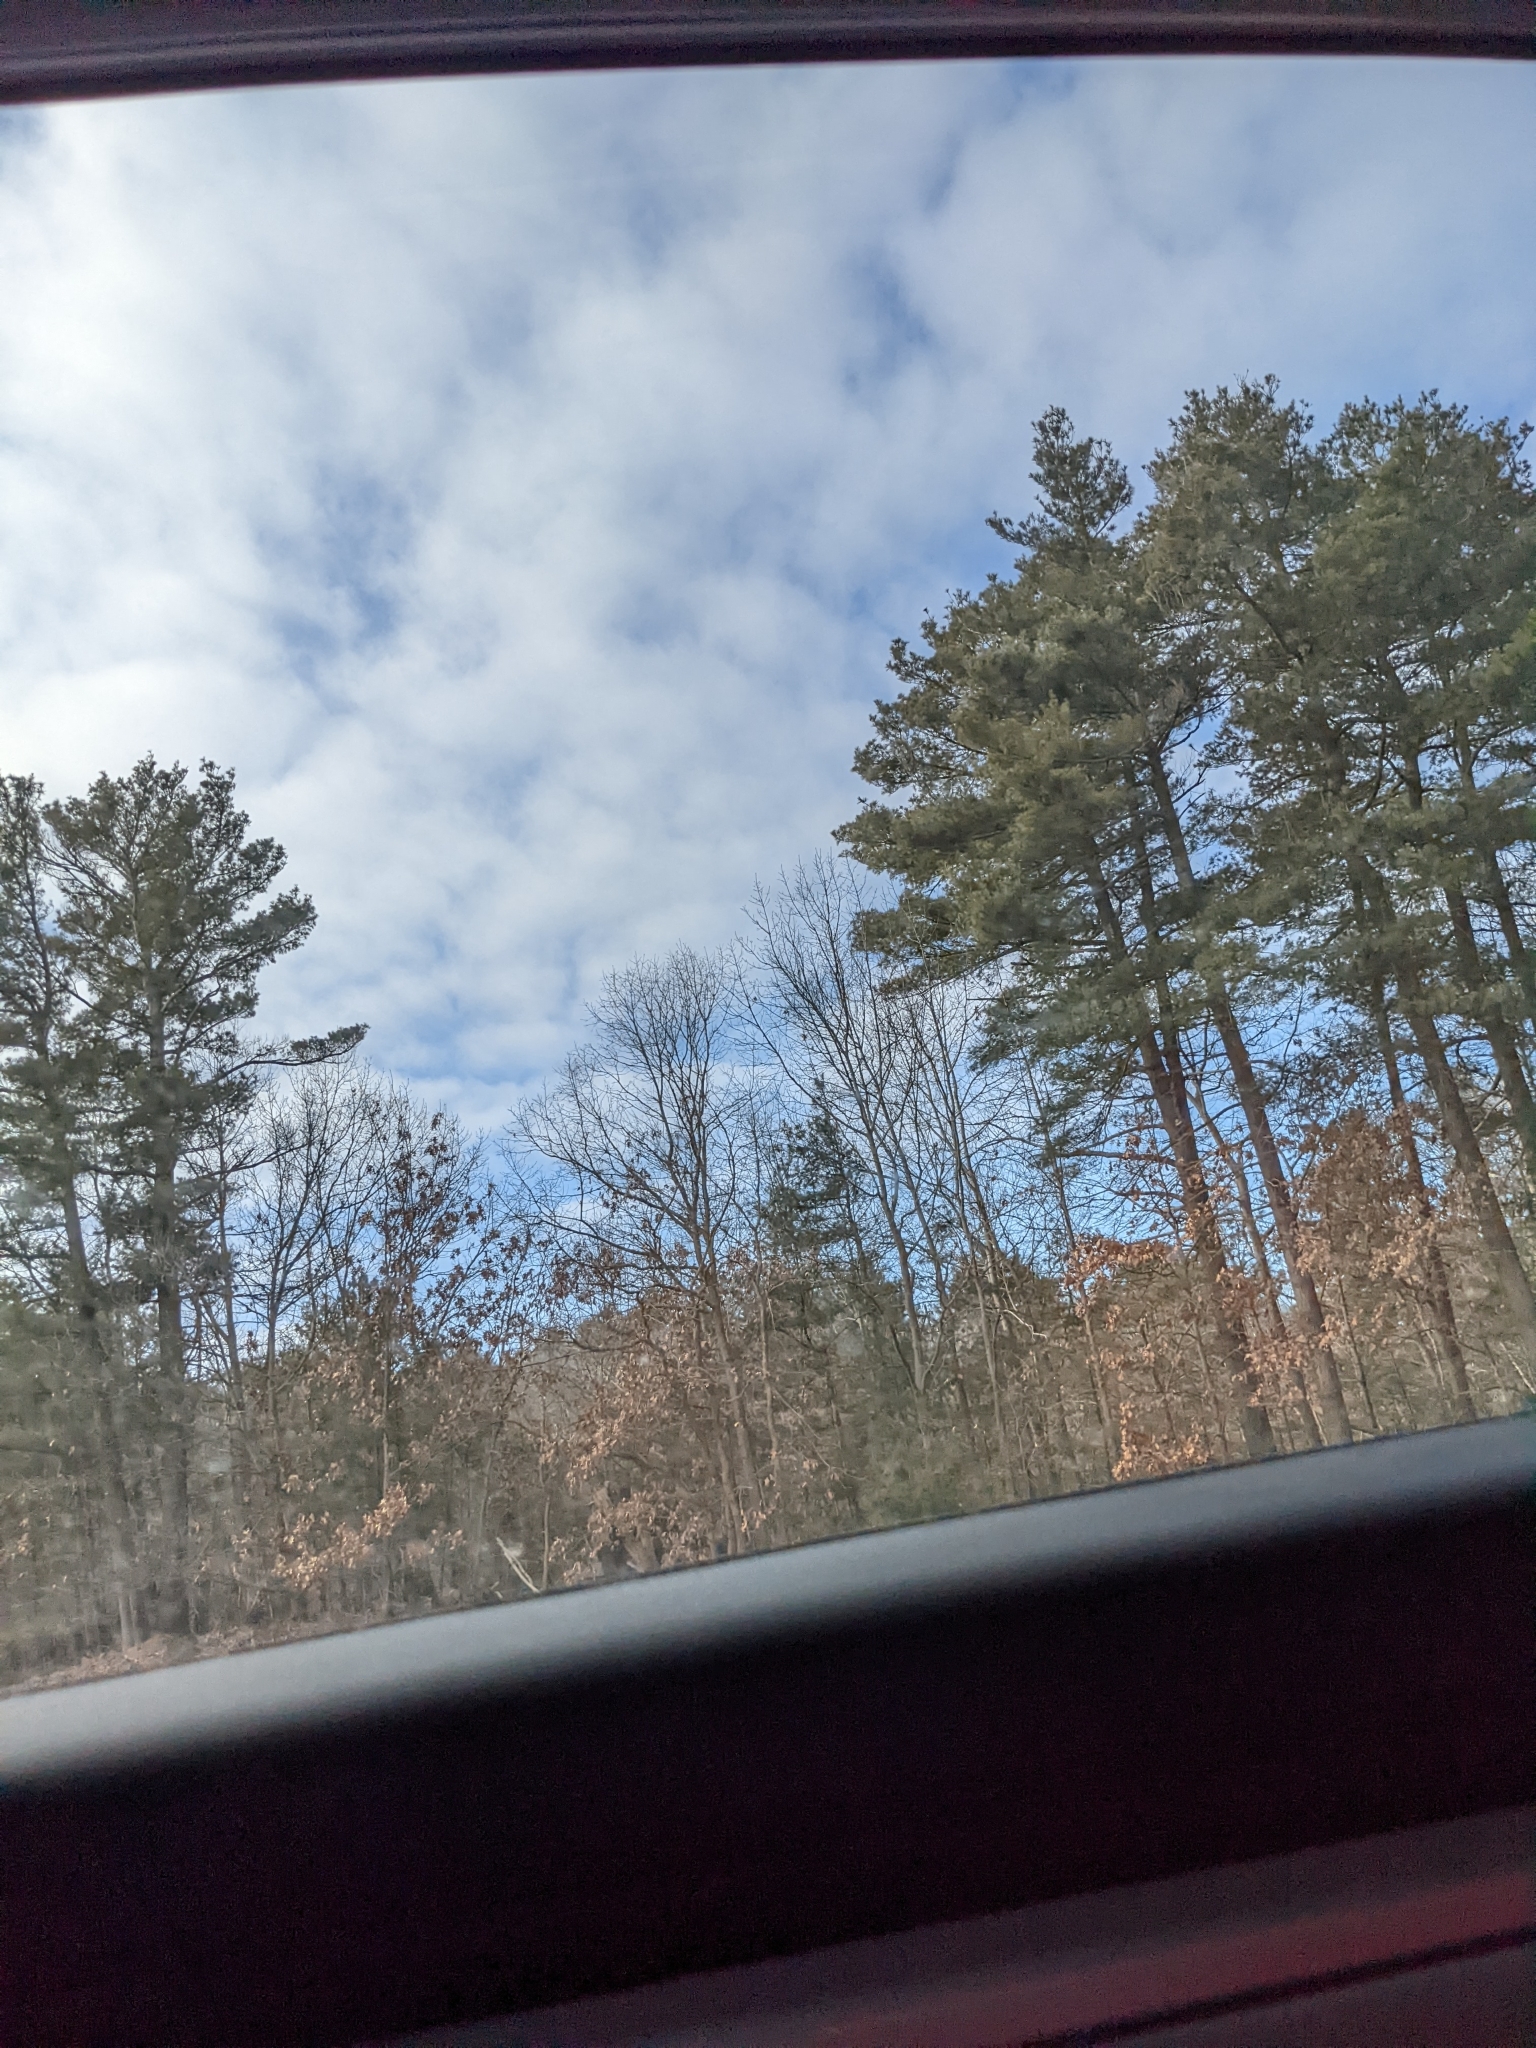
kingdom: Plantae
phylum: Tracheophyta
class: Pinopsida
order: Pinales
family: Pinaceae
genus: Pinus
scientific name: Pinus strobus
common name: Weymouth pine
